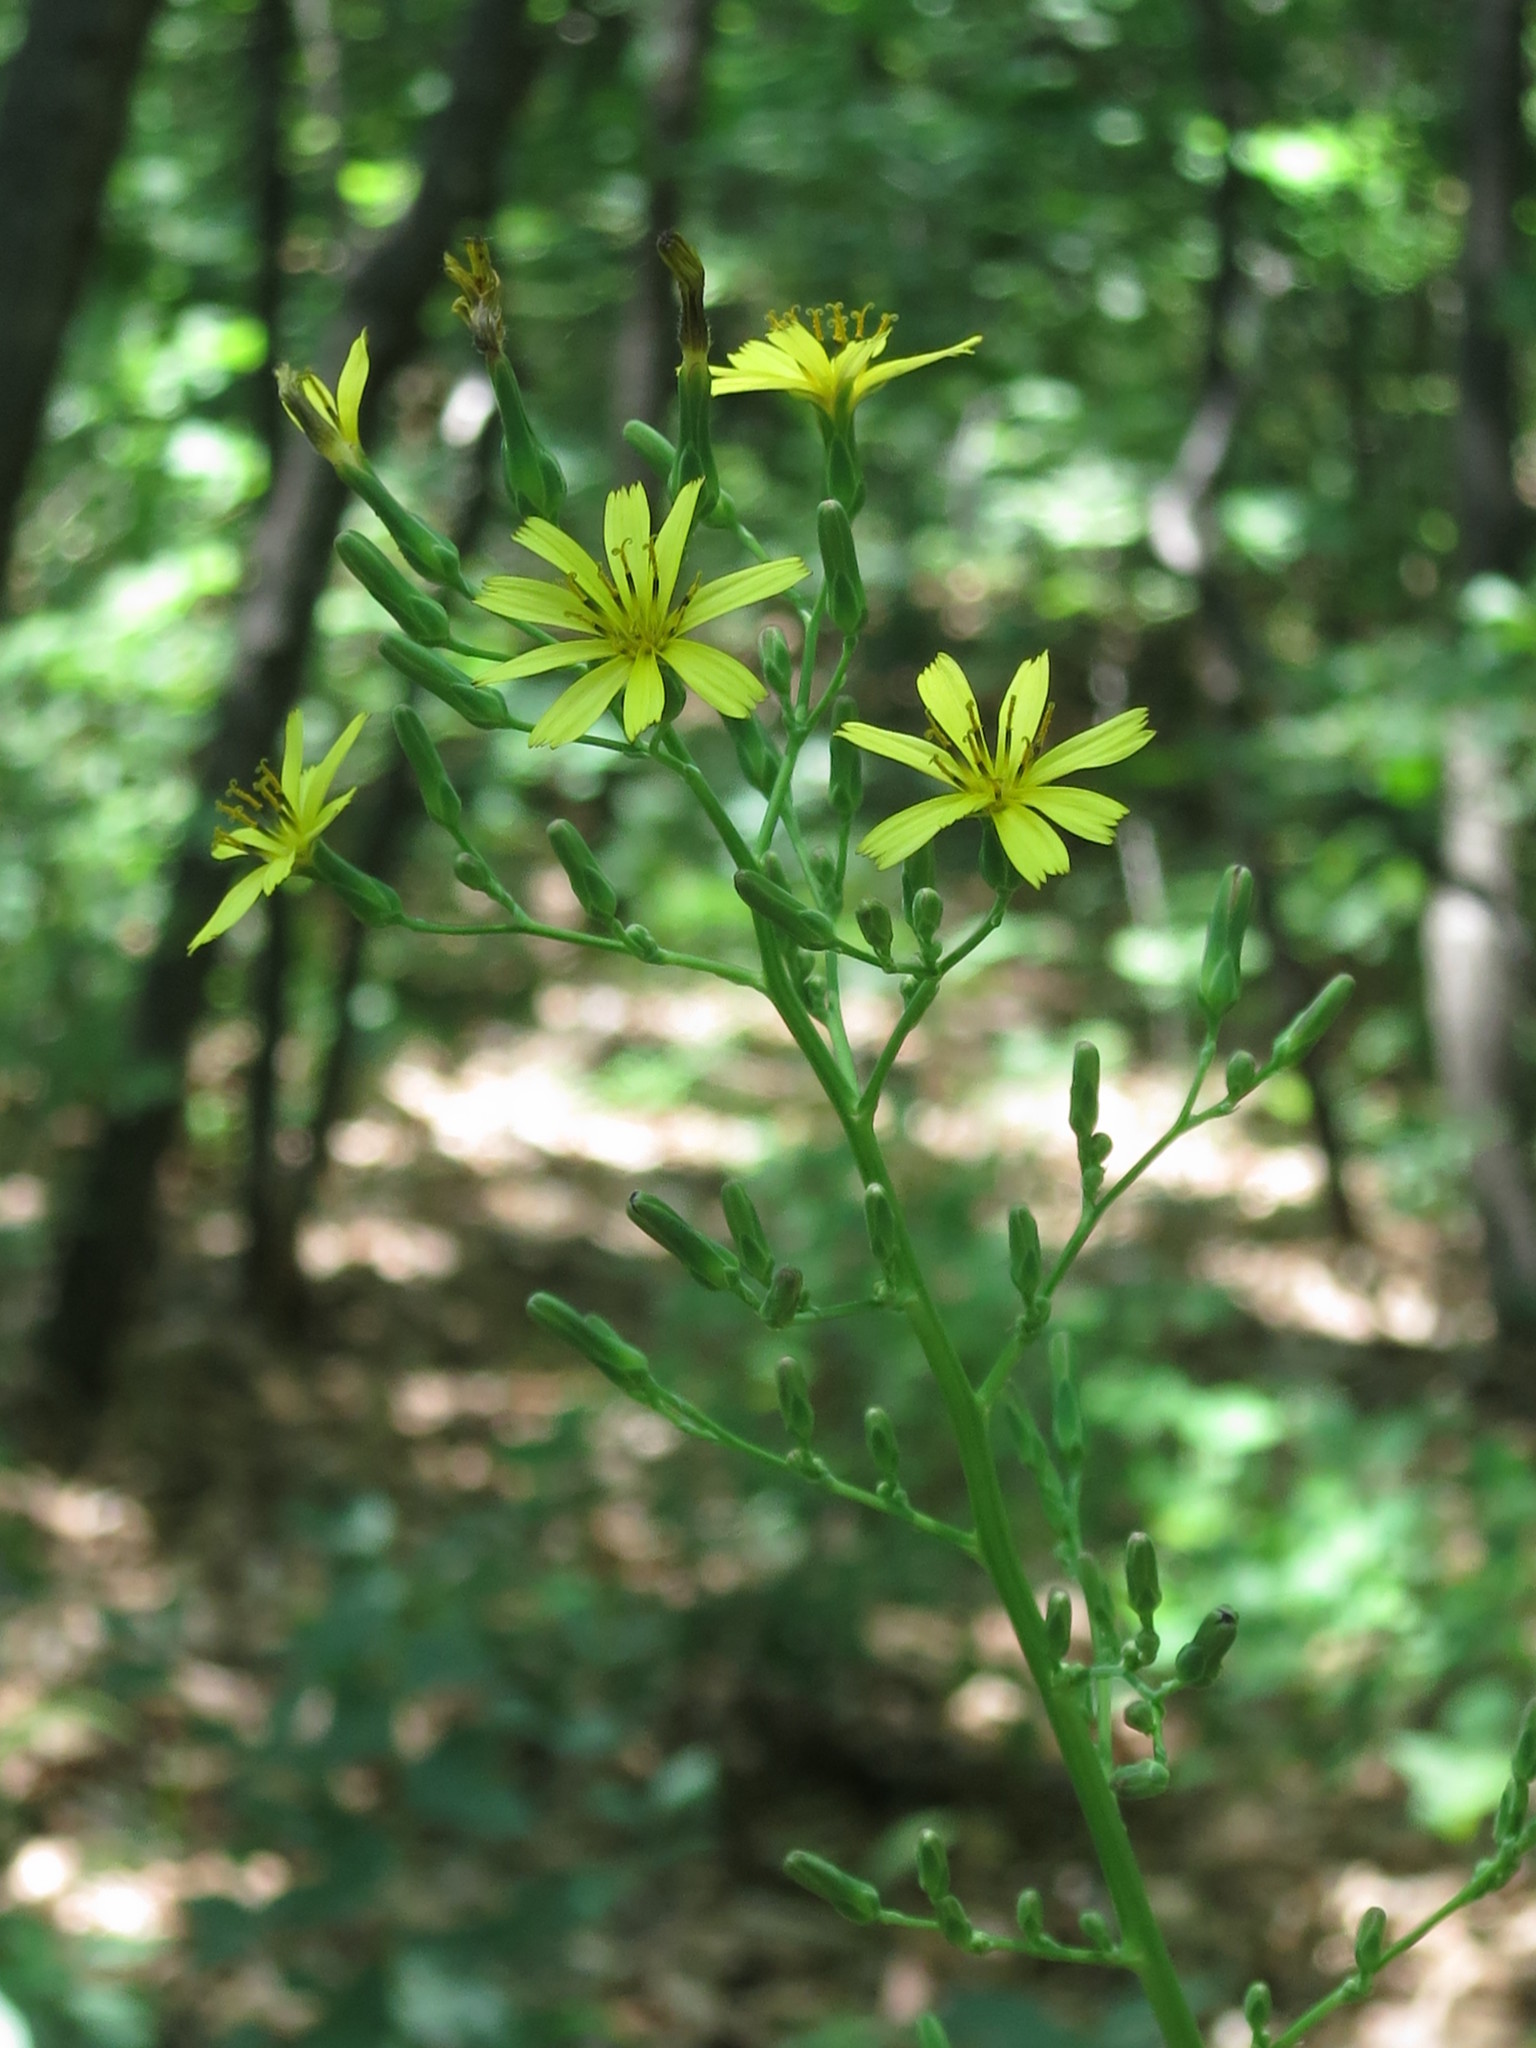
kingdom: Plantae
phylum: Tracheophyta
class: Magnoliopsida
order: Asterales
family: Asteraceae
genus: Lactuca
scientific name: Lactuca raddeana
